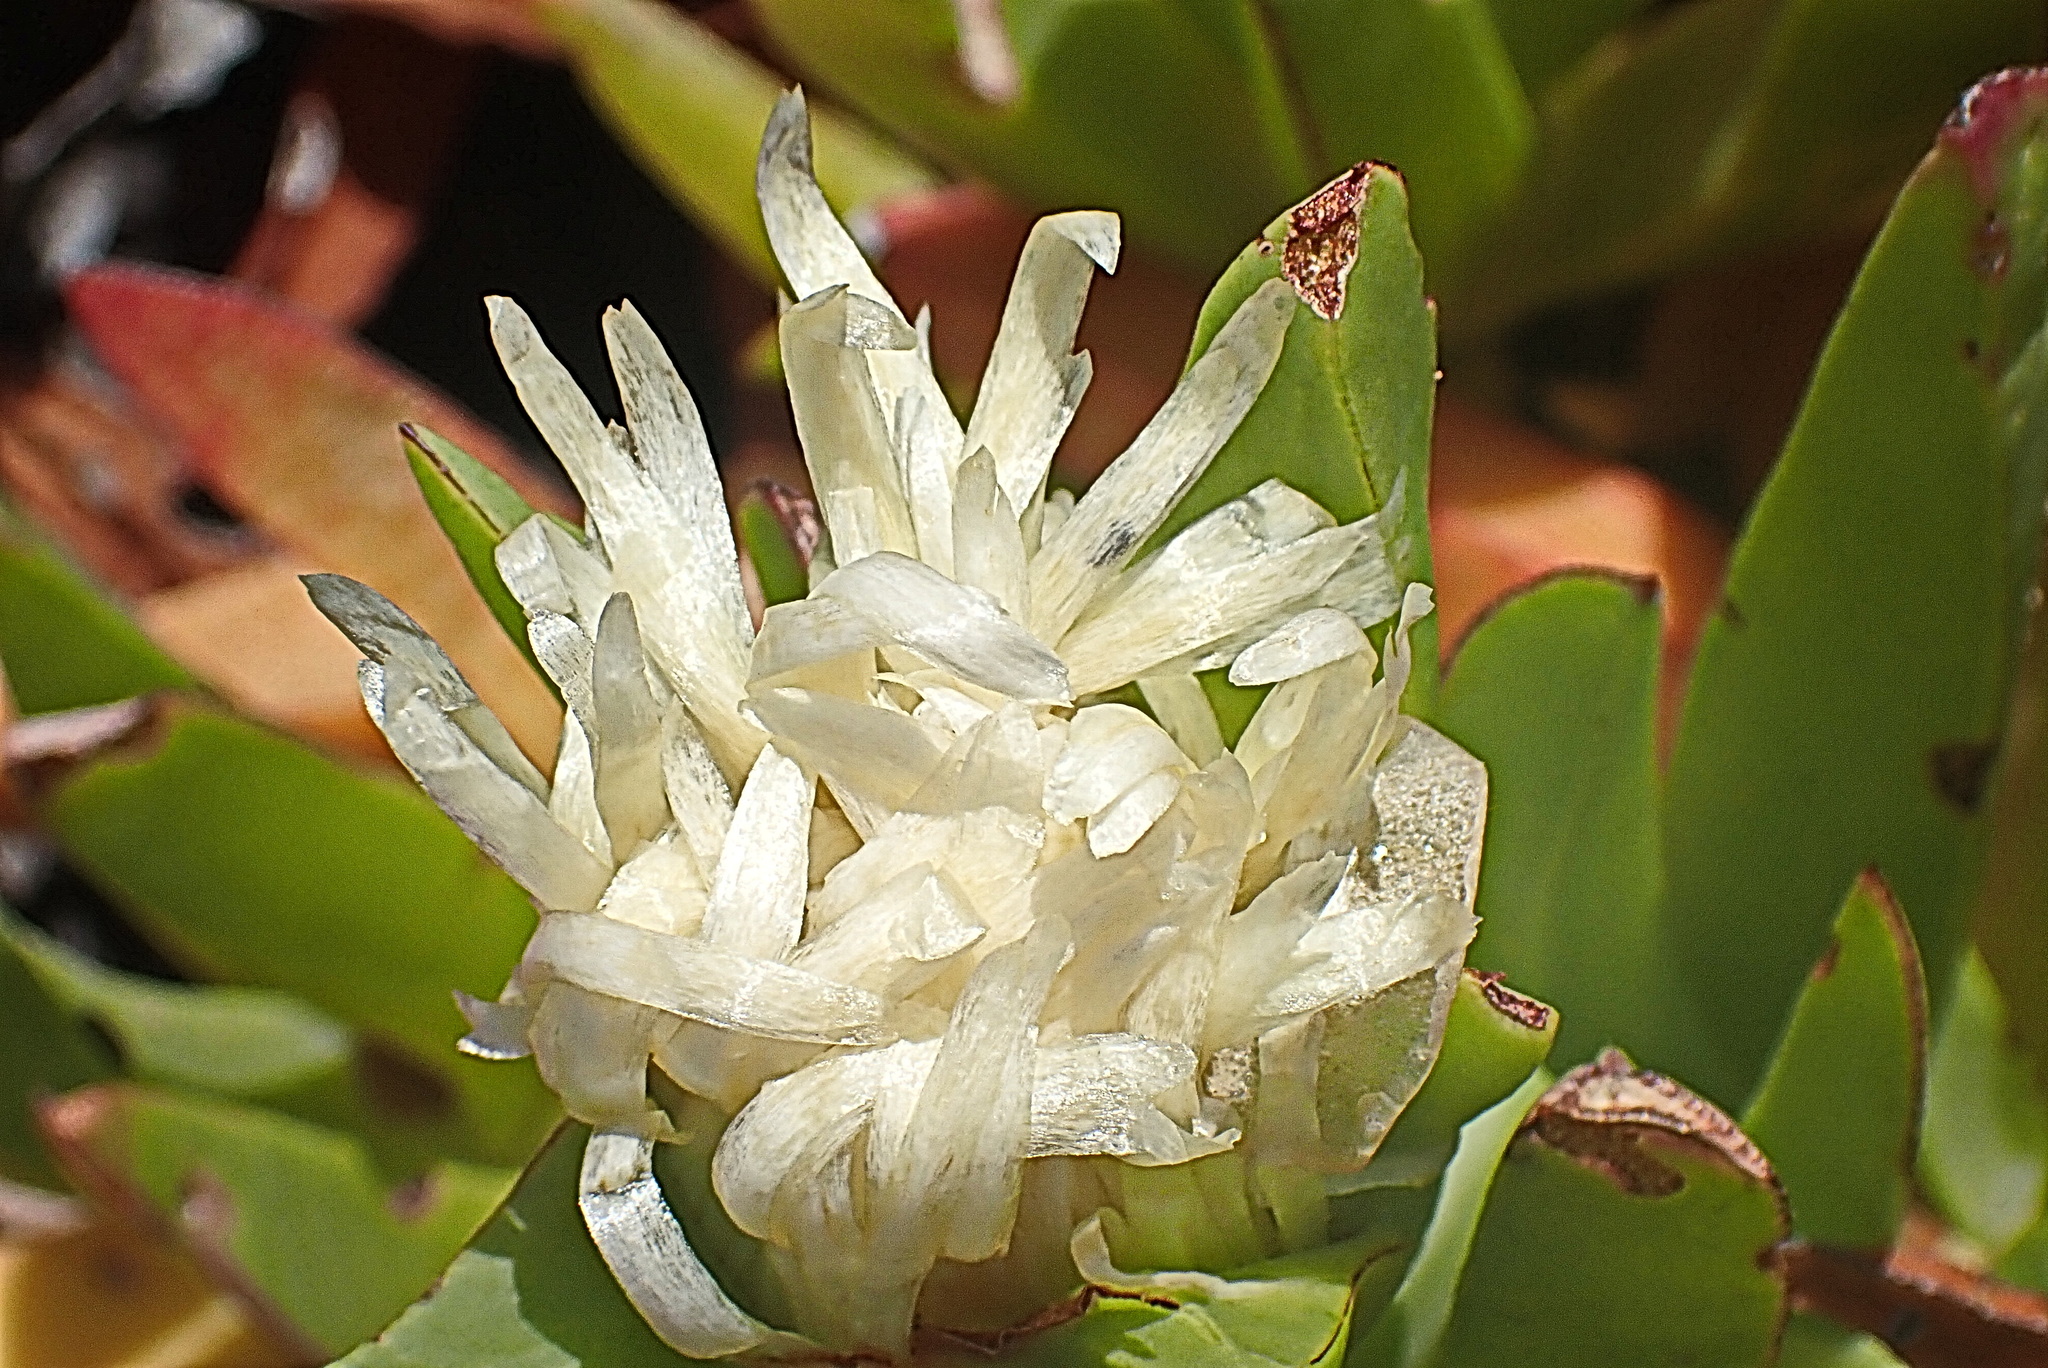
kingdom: Plantae
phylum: Tracheophyta
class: Magnoliopsida
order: Caryophyllales
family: Aizoaceae
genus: Carpobrotus
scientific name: Carpobrotus edulis
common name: Hottentot-fig
